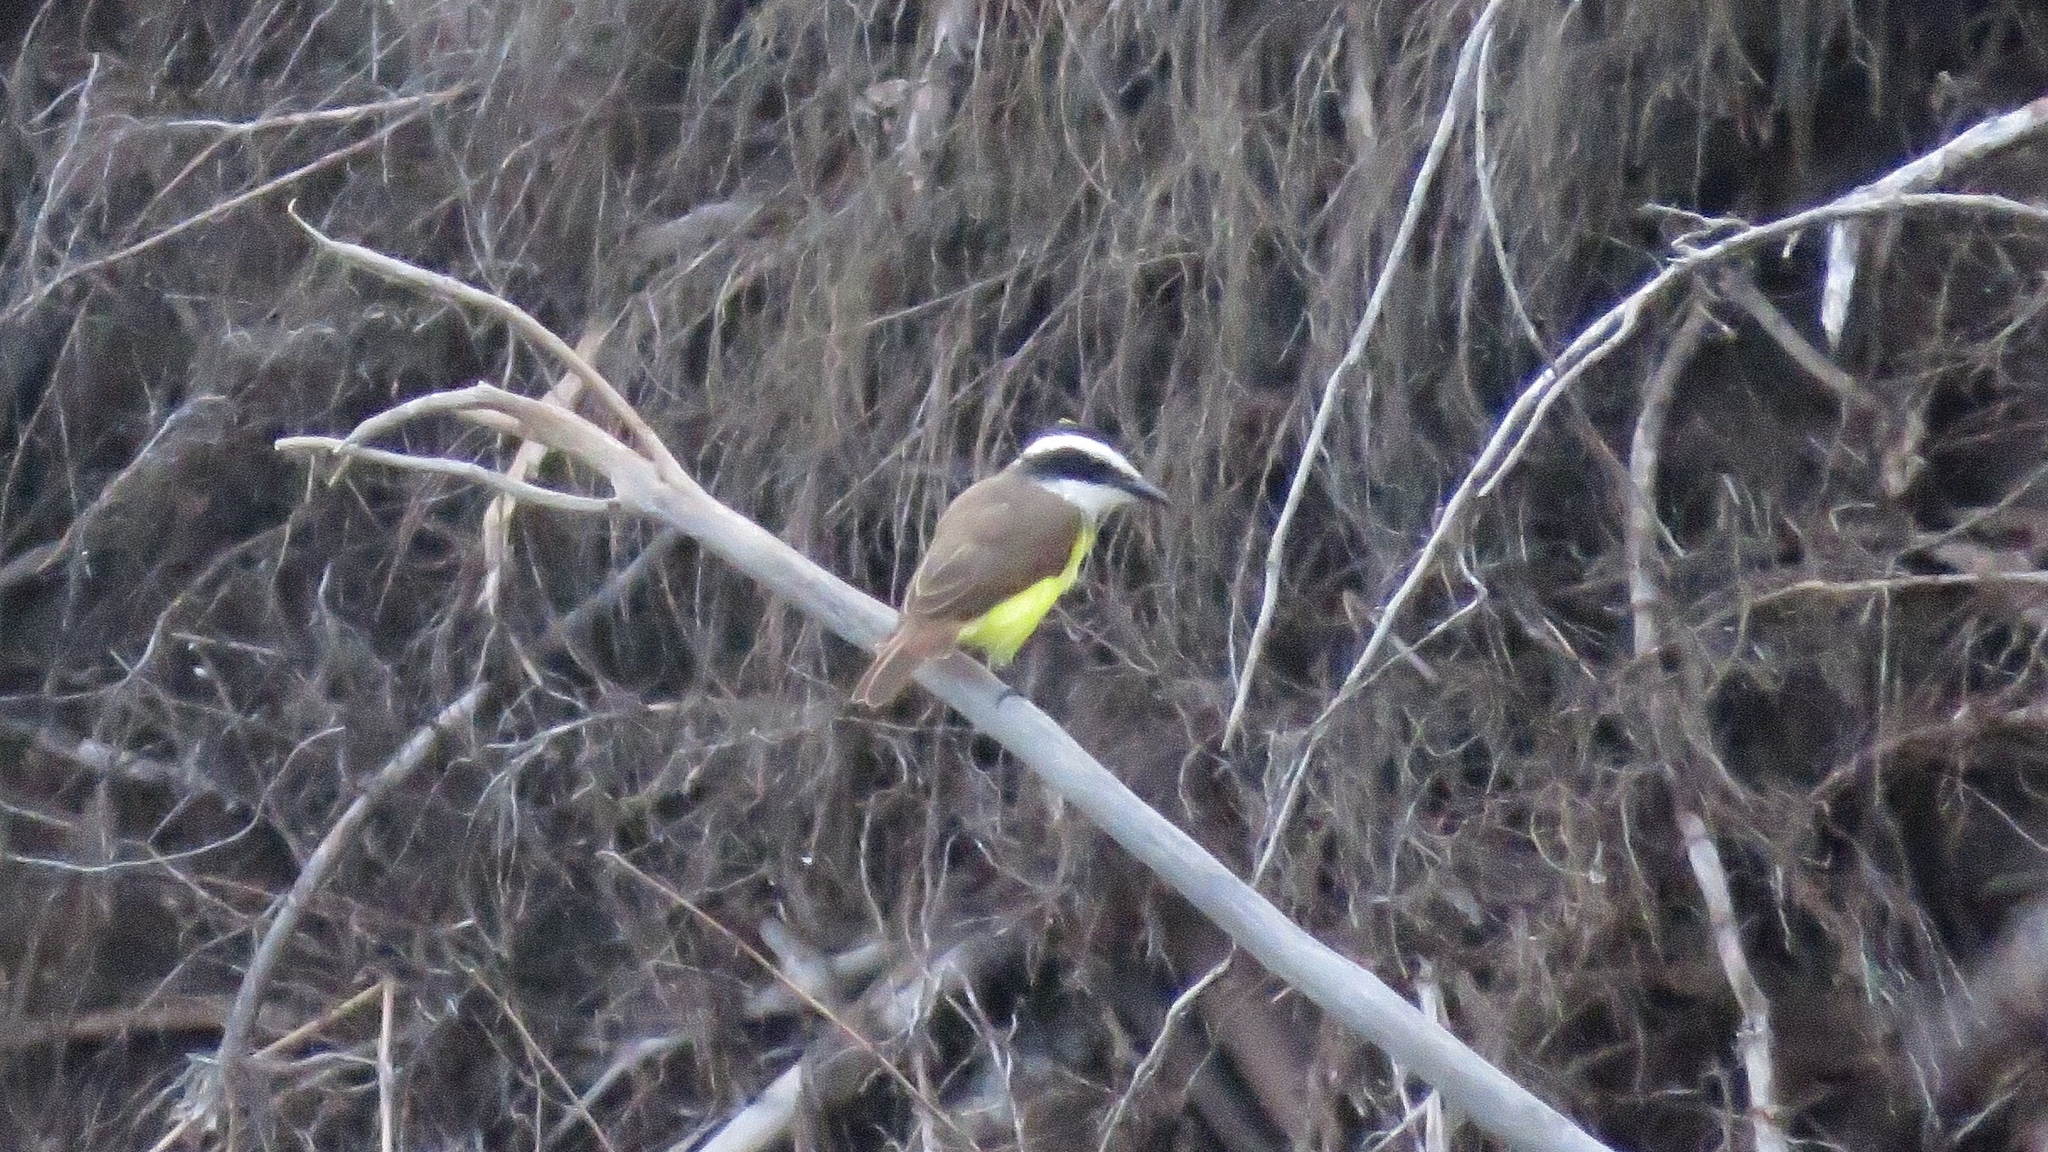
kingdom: Animalia
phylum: Chordata
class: Aves
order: Passeriformes
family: Tyrannidae
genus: Pitangus
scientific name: Pitangus sulphuratus
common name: Great kiskadee
